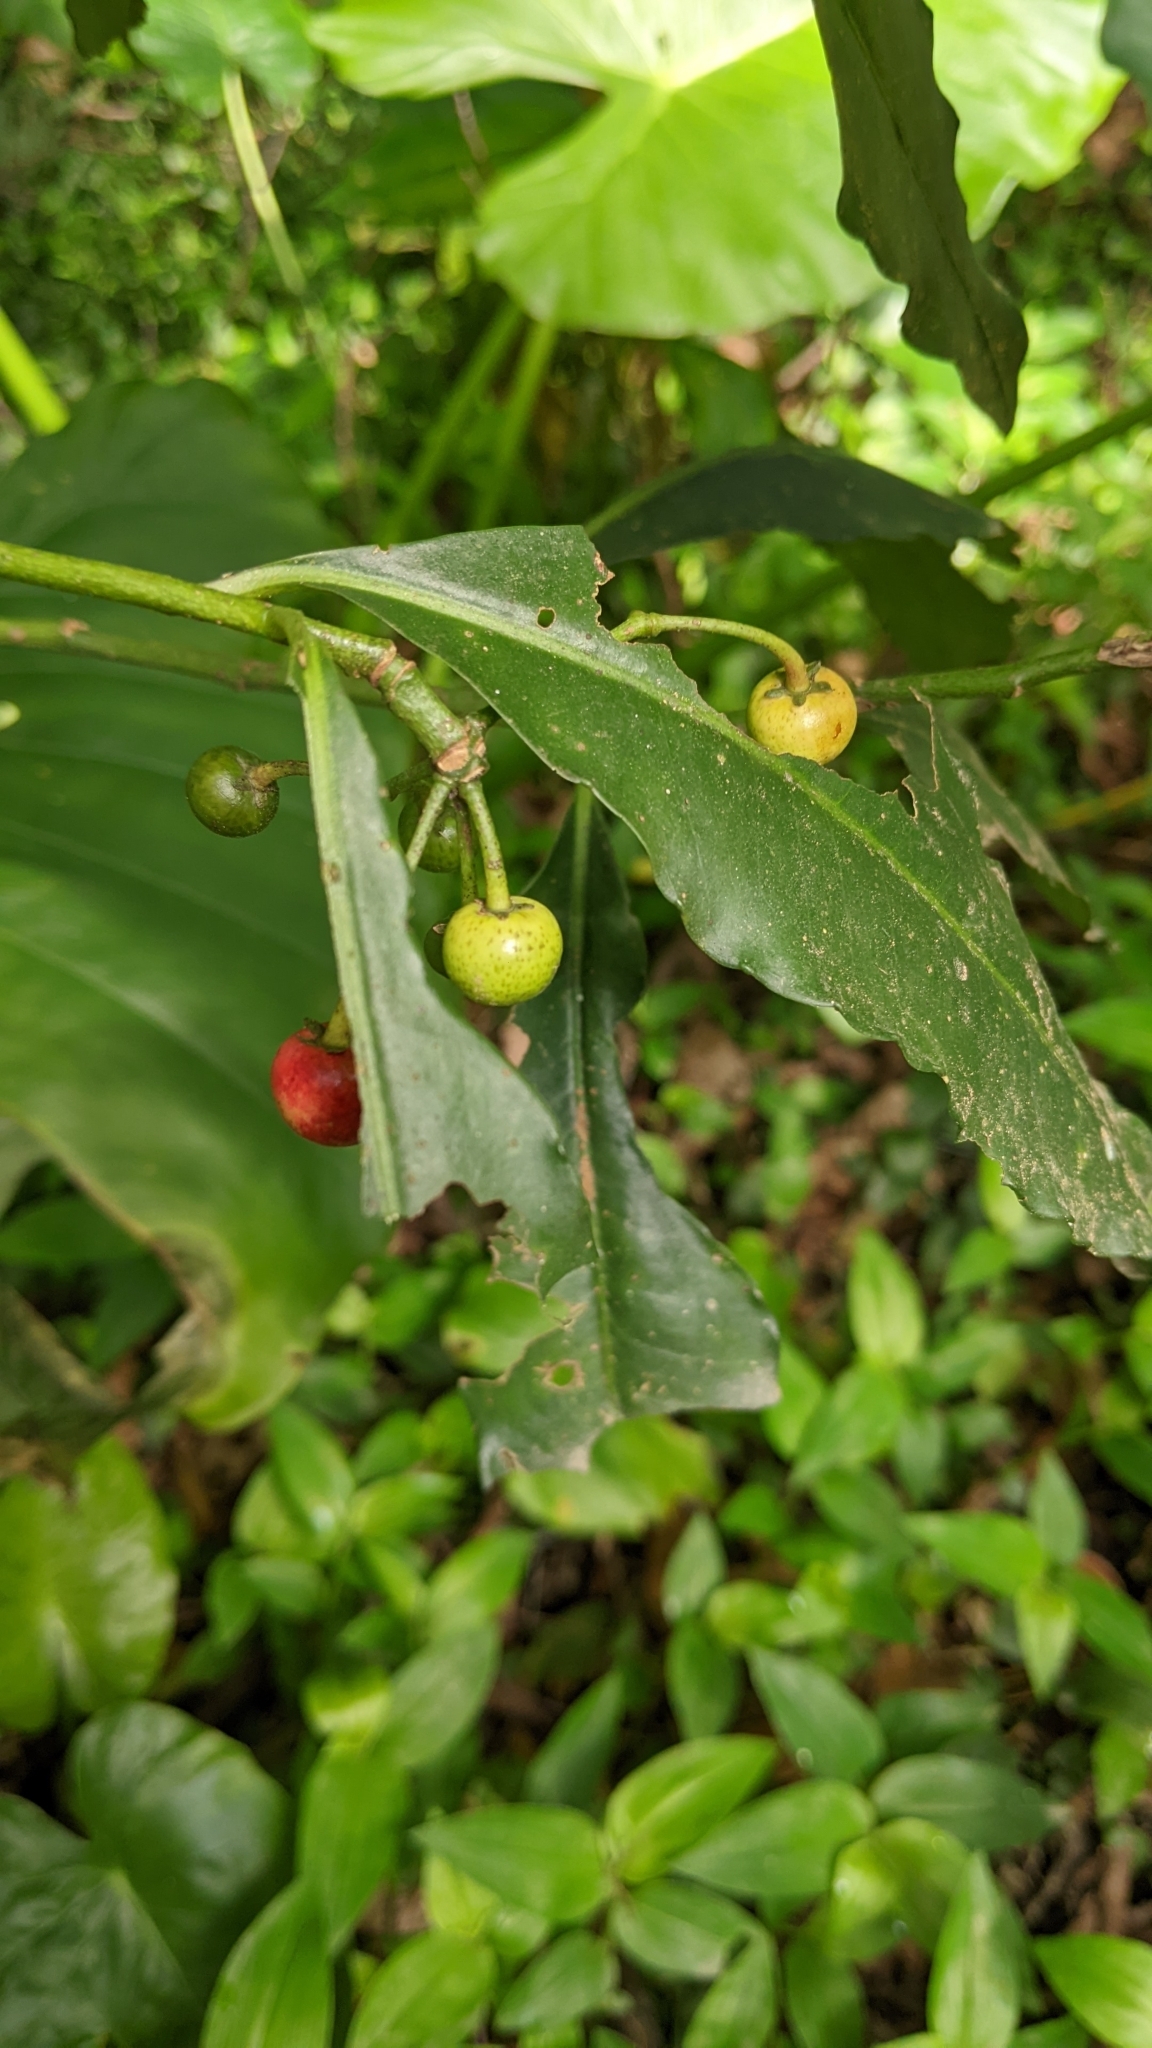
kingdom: Plantae
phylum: Tracheophyta
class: Magnoliopsida
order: Ericales
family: Primulaceae
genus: Ardisia
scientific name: Ardisia polysticta
